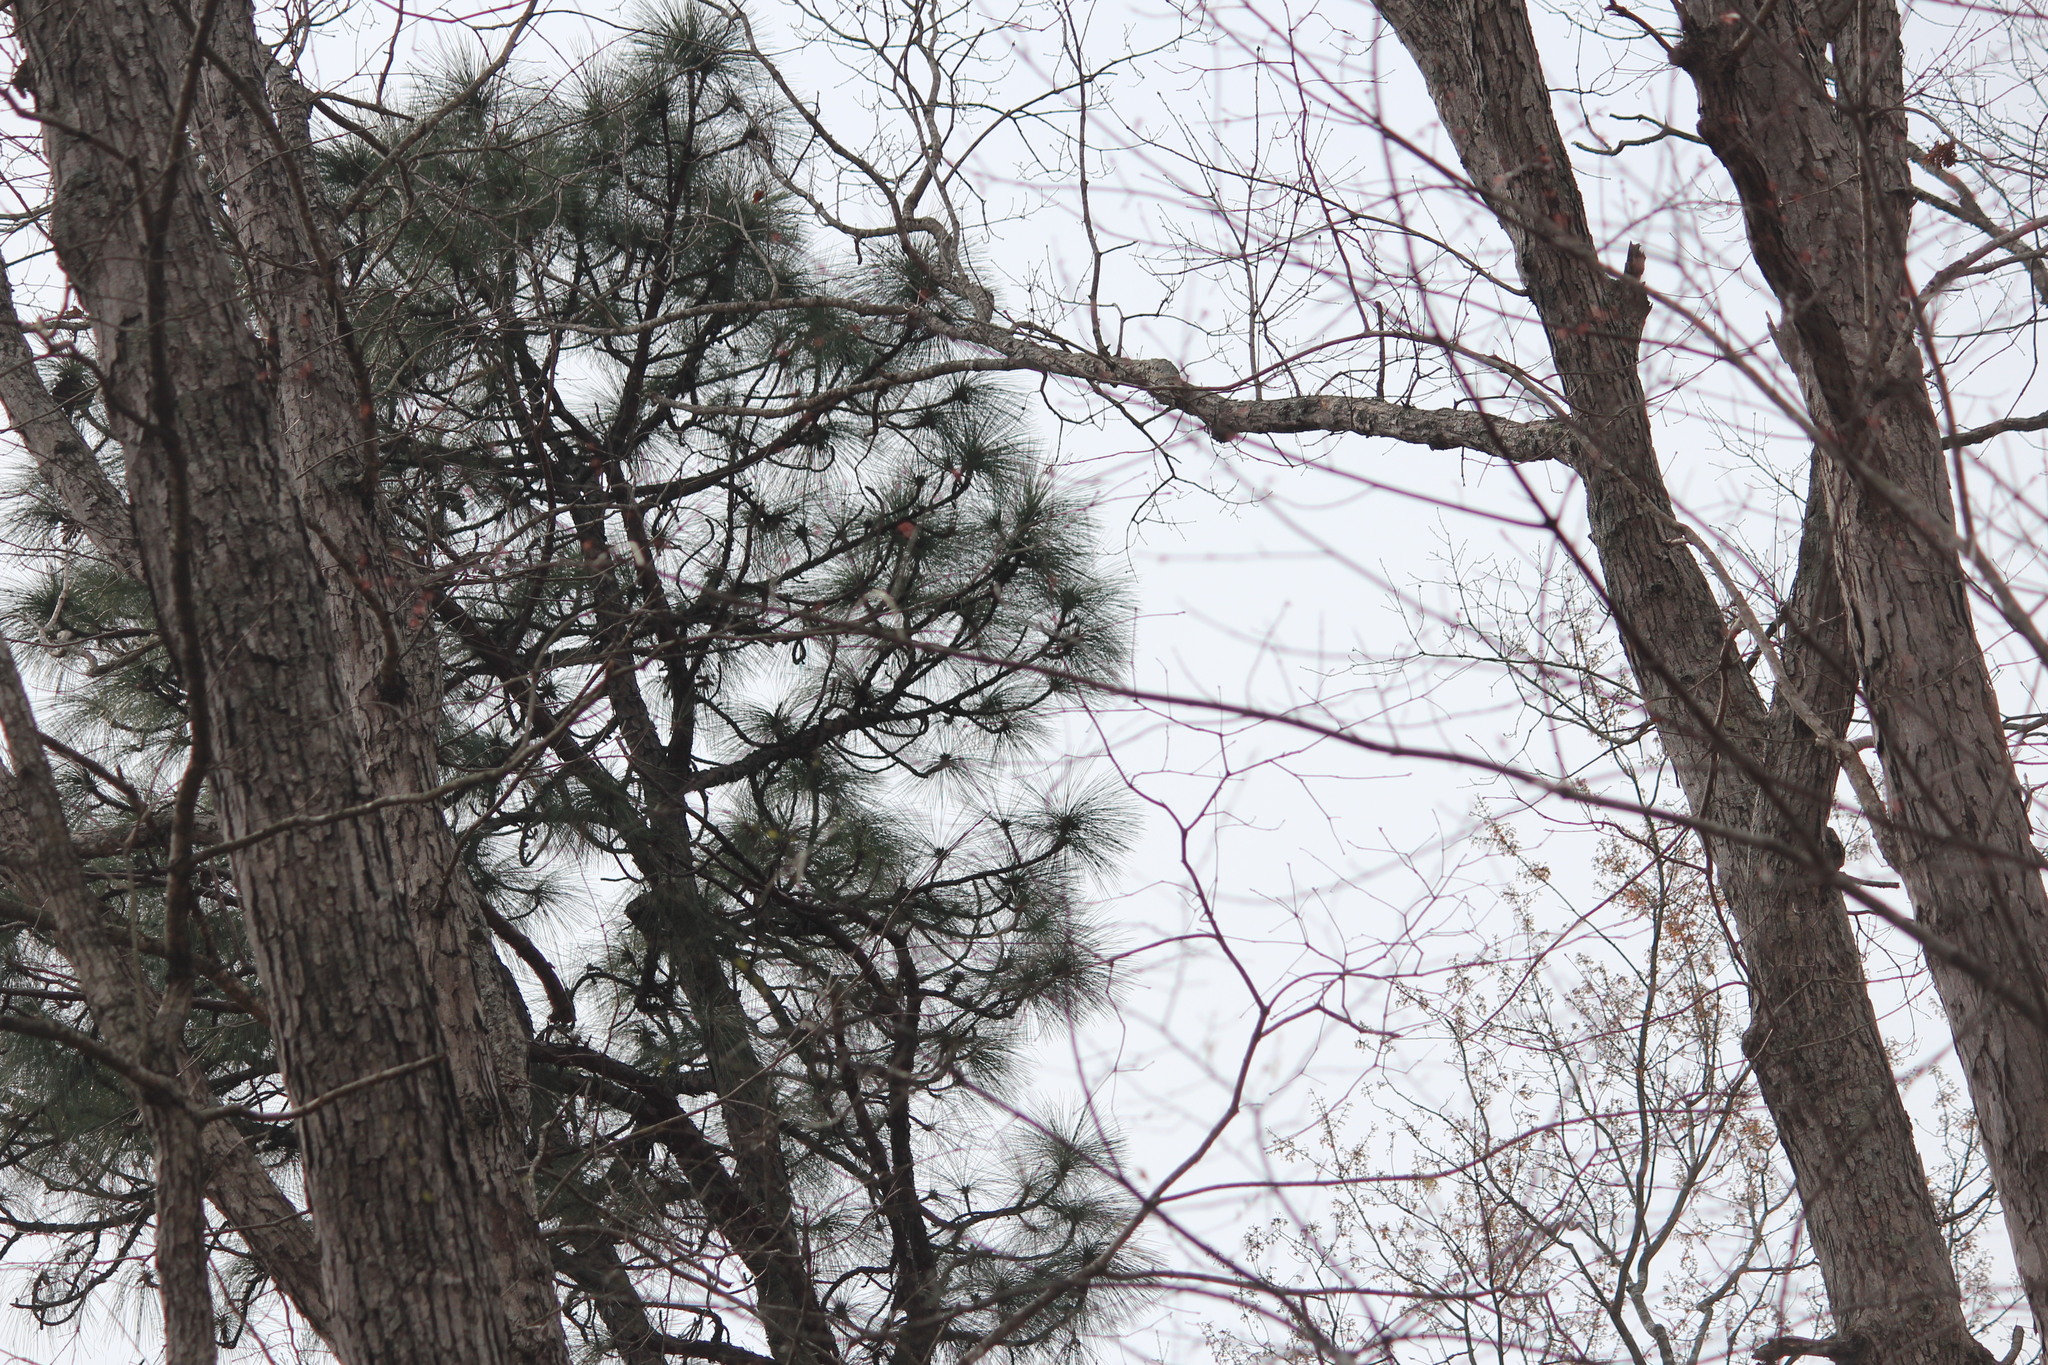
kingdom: Plantae
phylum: Tracheophyta
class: Pinopsida
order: Pinales
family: Pinaceae
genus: Pinus
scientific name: Pinus palustris
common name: Longleaf pine
